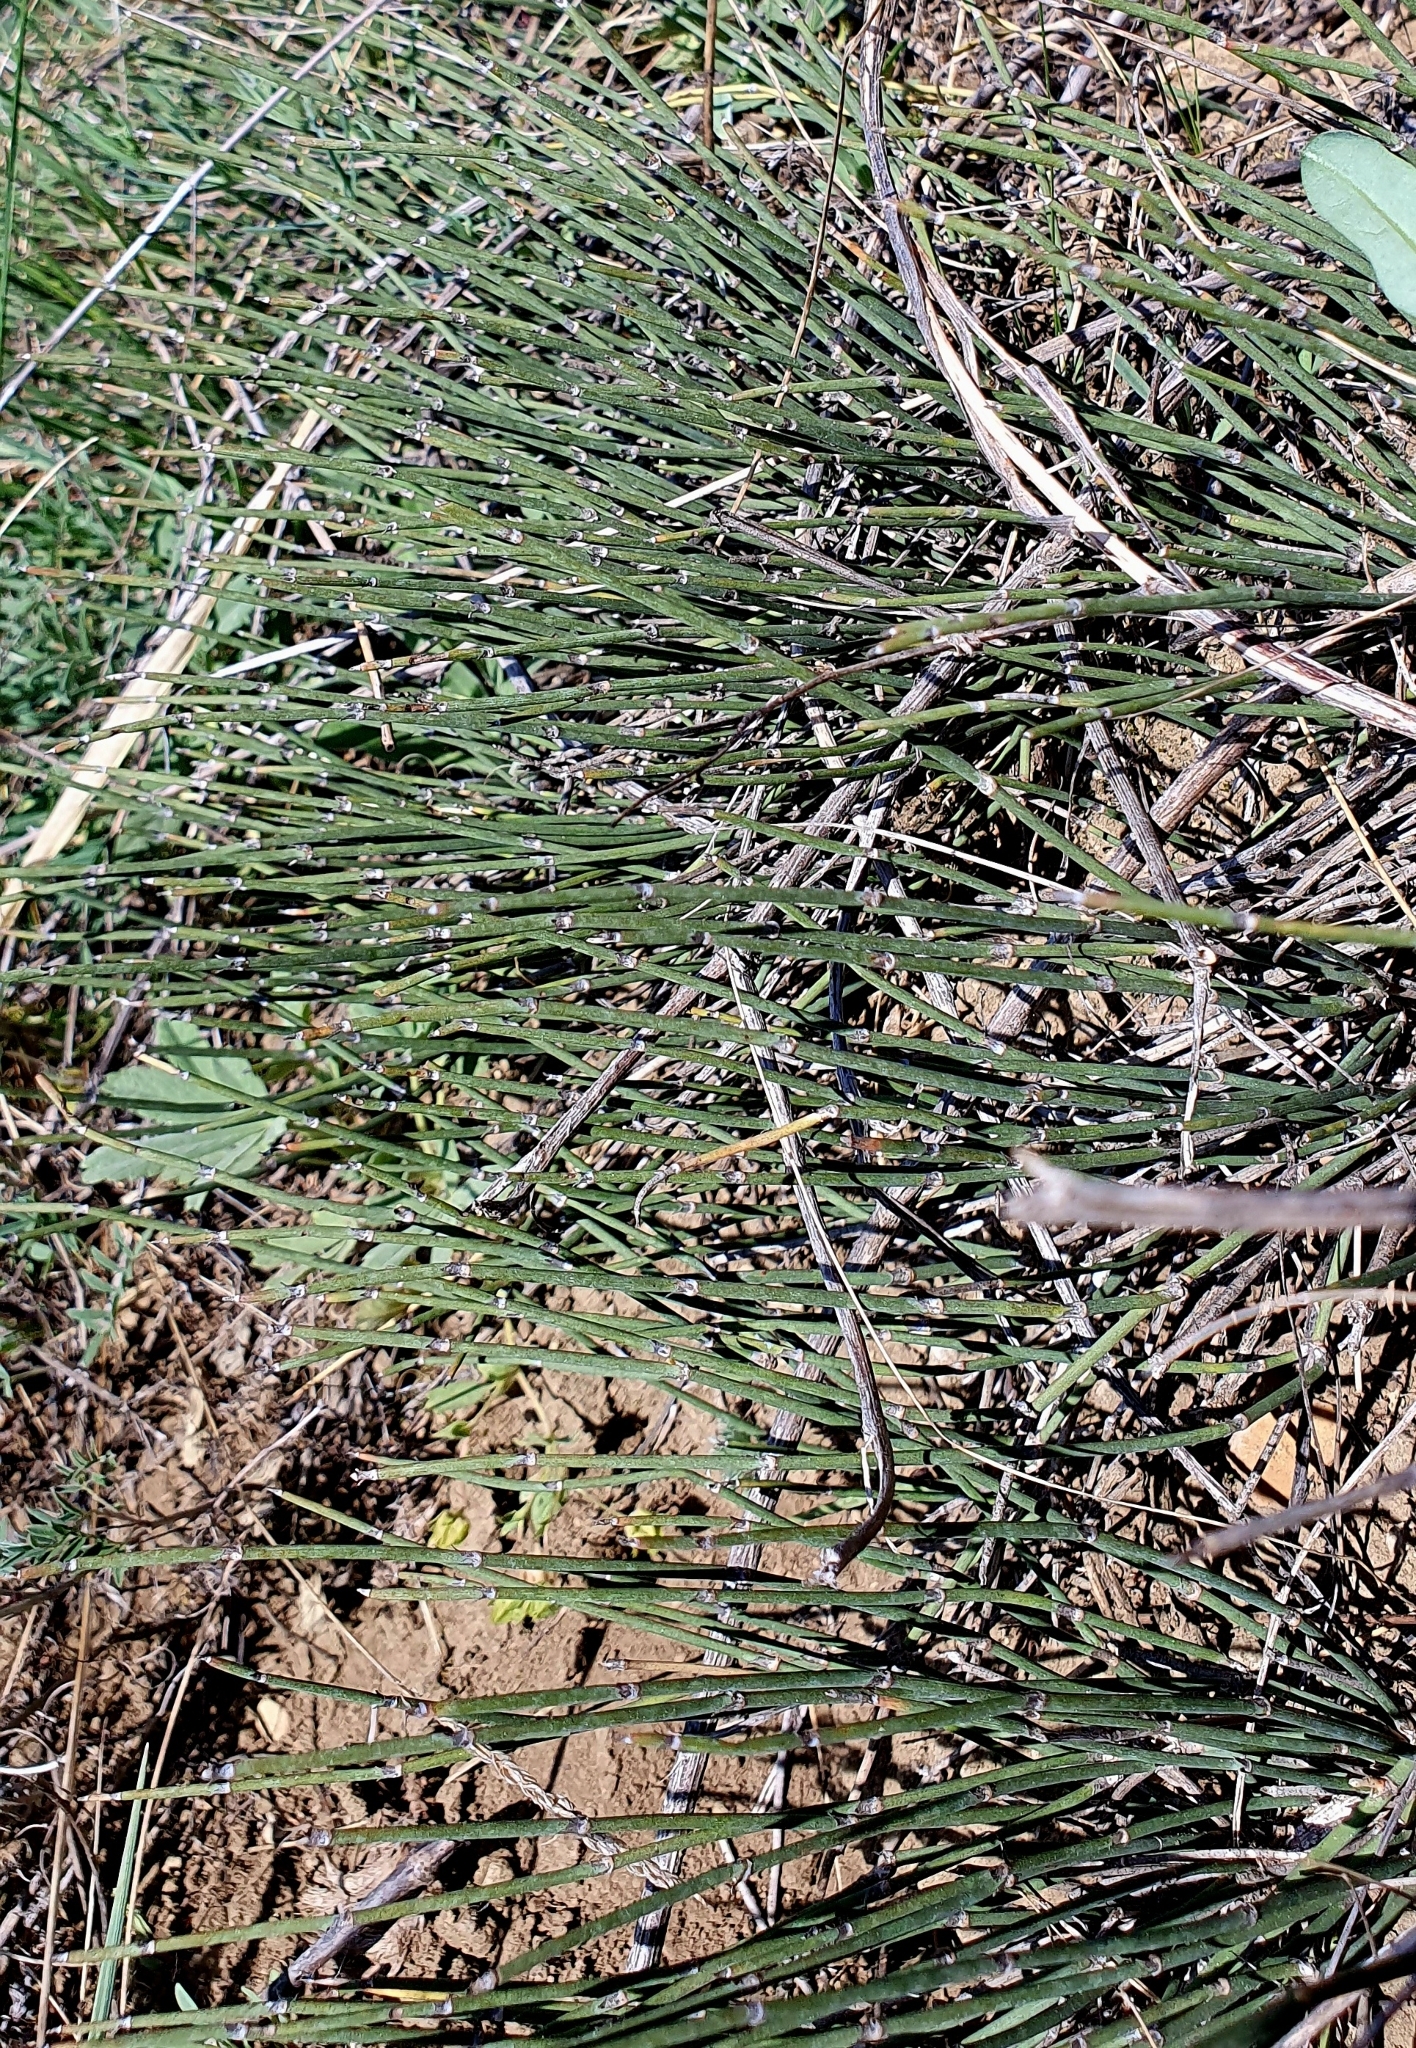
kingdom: Plantae
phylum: Tracheophyta
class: Gnetopsida
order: Ephedrales
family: Ephedraceae
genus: Ephedra
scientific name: Ephedra distachya
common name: Sea grape
